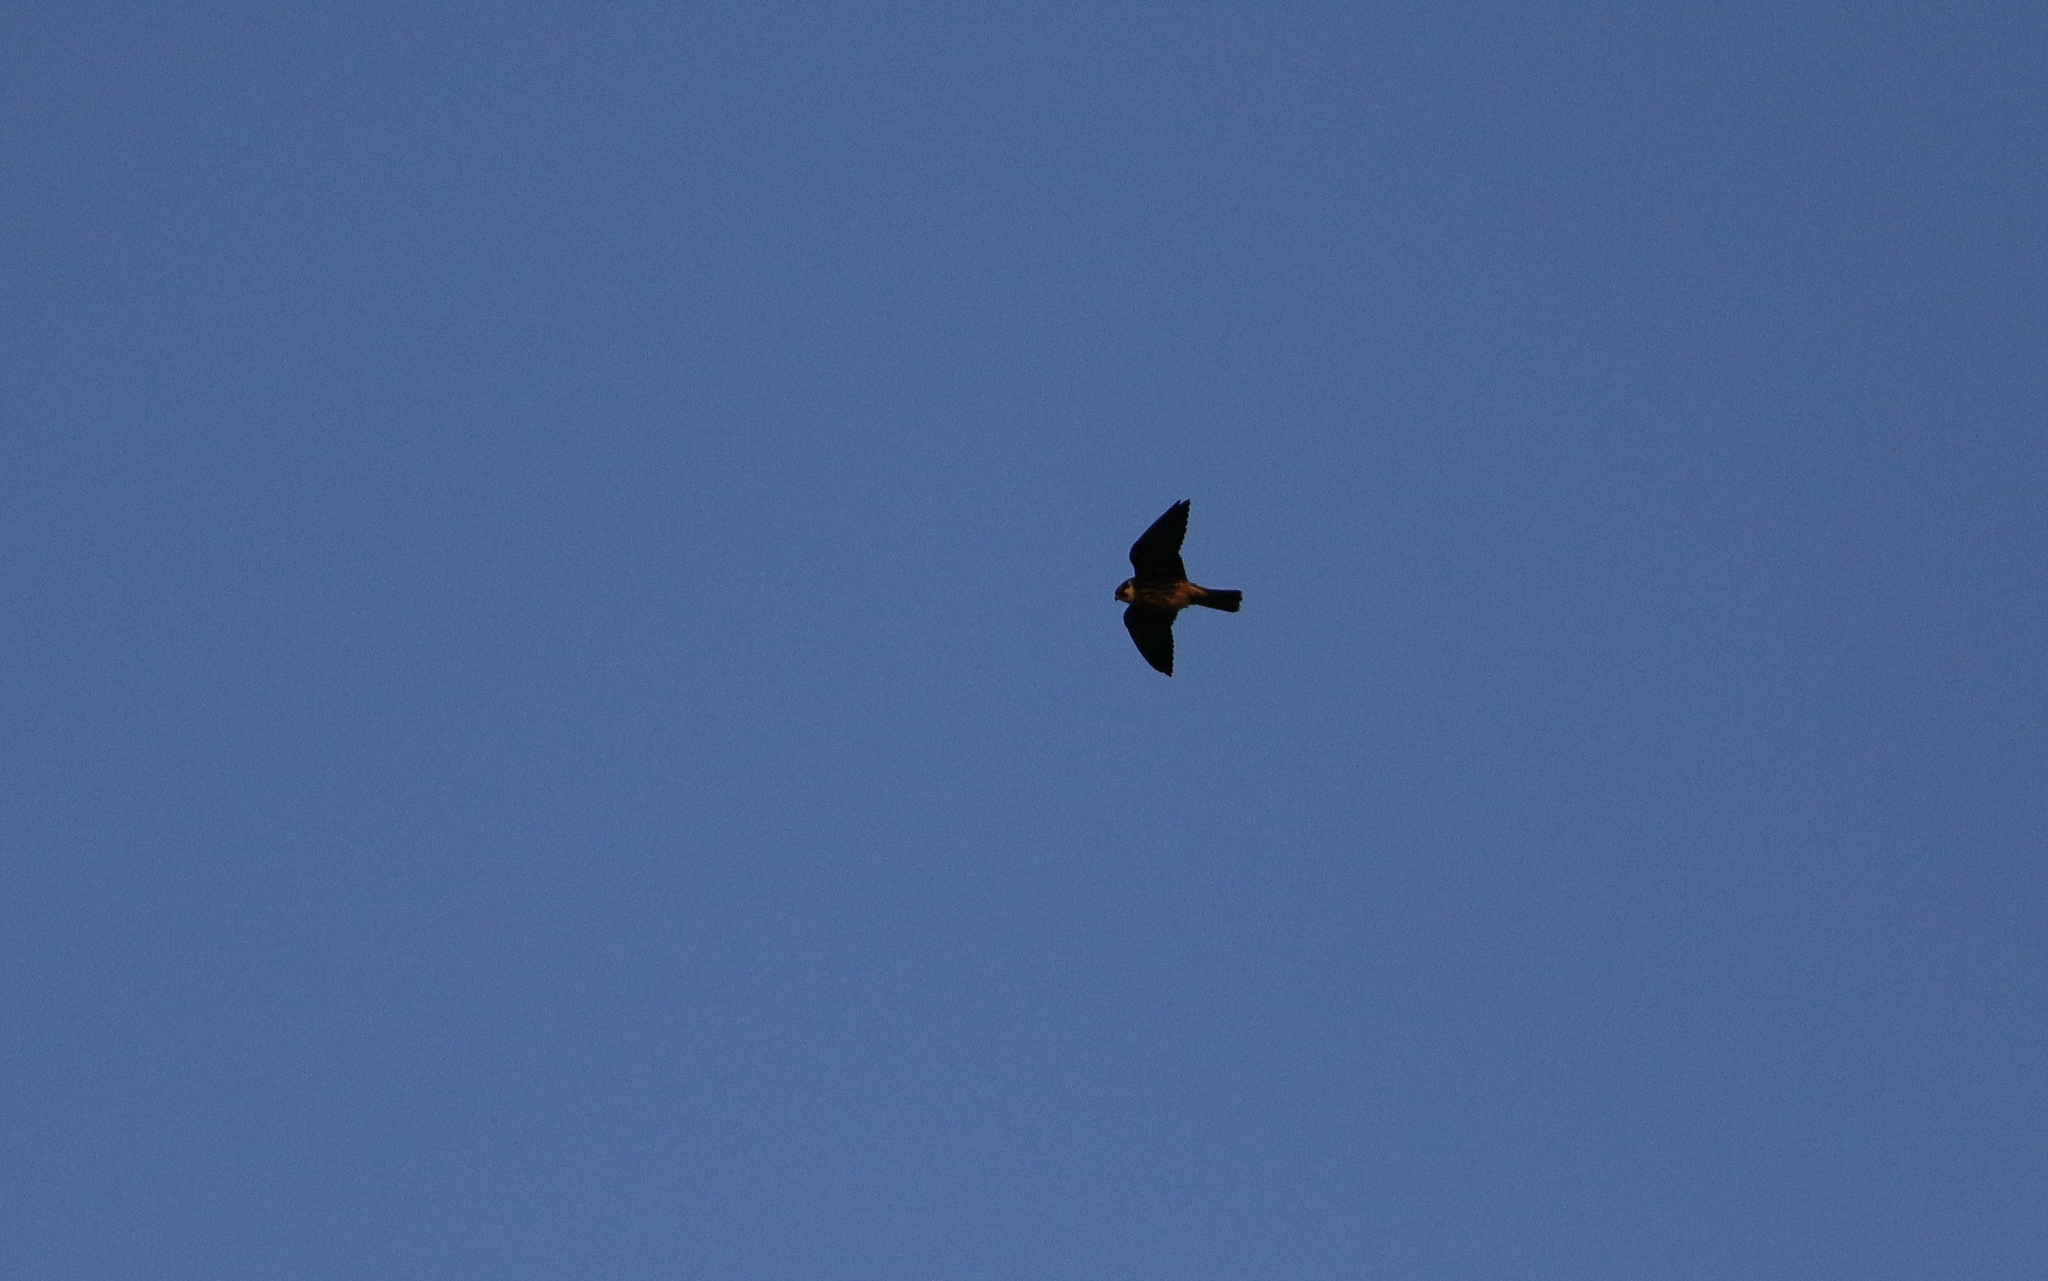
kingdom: Animalia
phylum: Chordata
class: Aves
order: Falconiformes
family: Falconidae
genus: Falco
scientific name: Falco subbuteo
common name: Eurasian hobby
